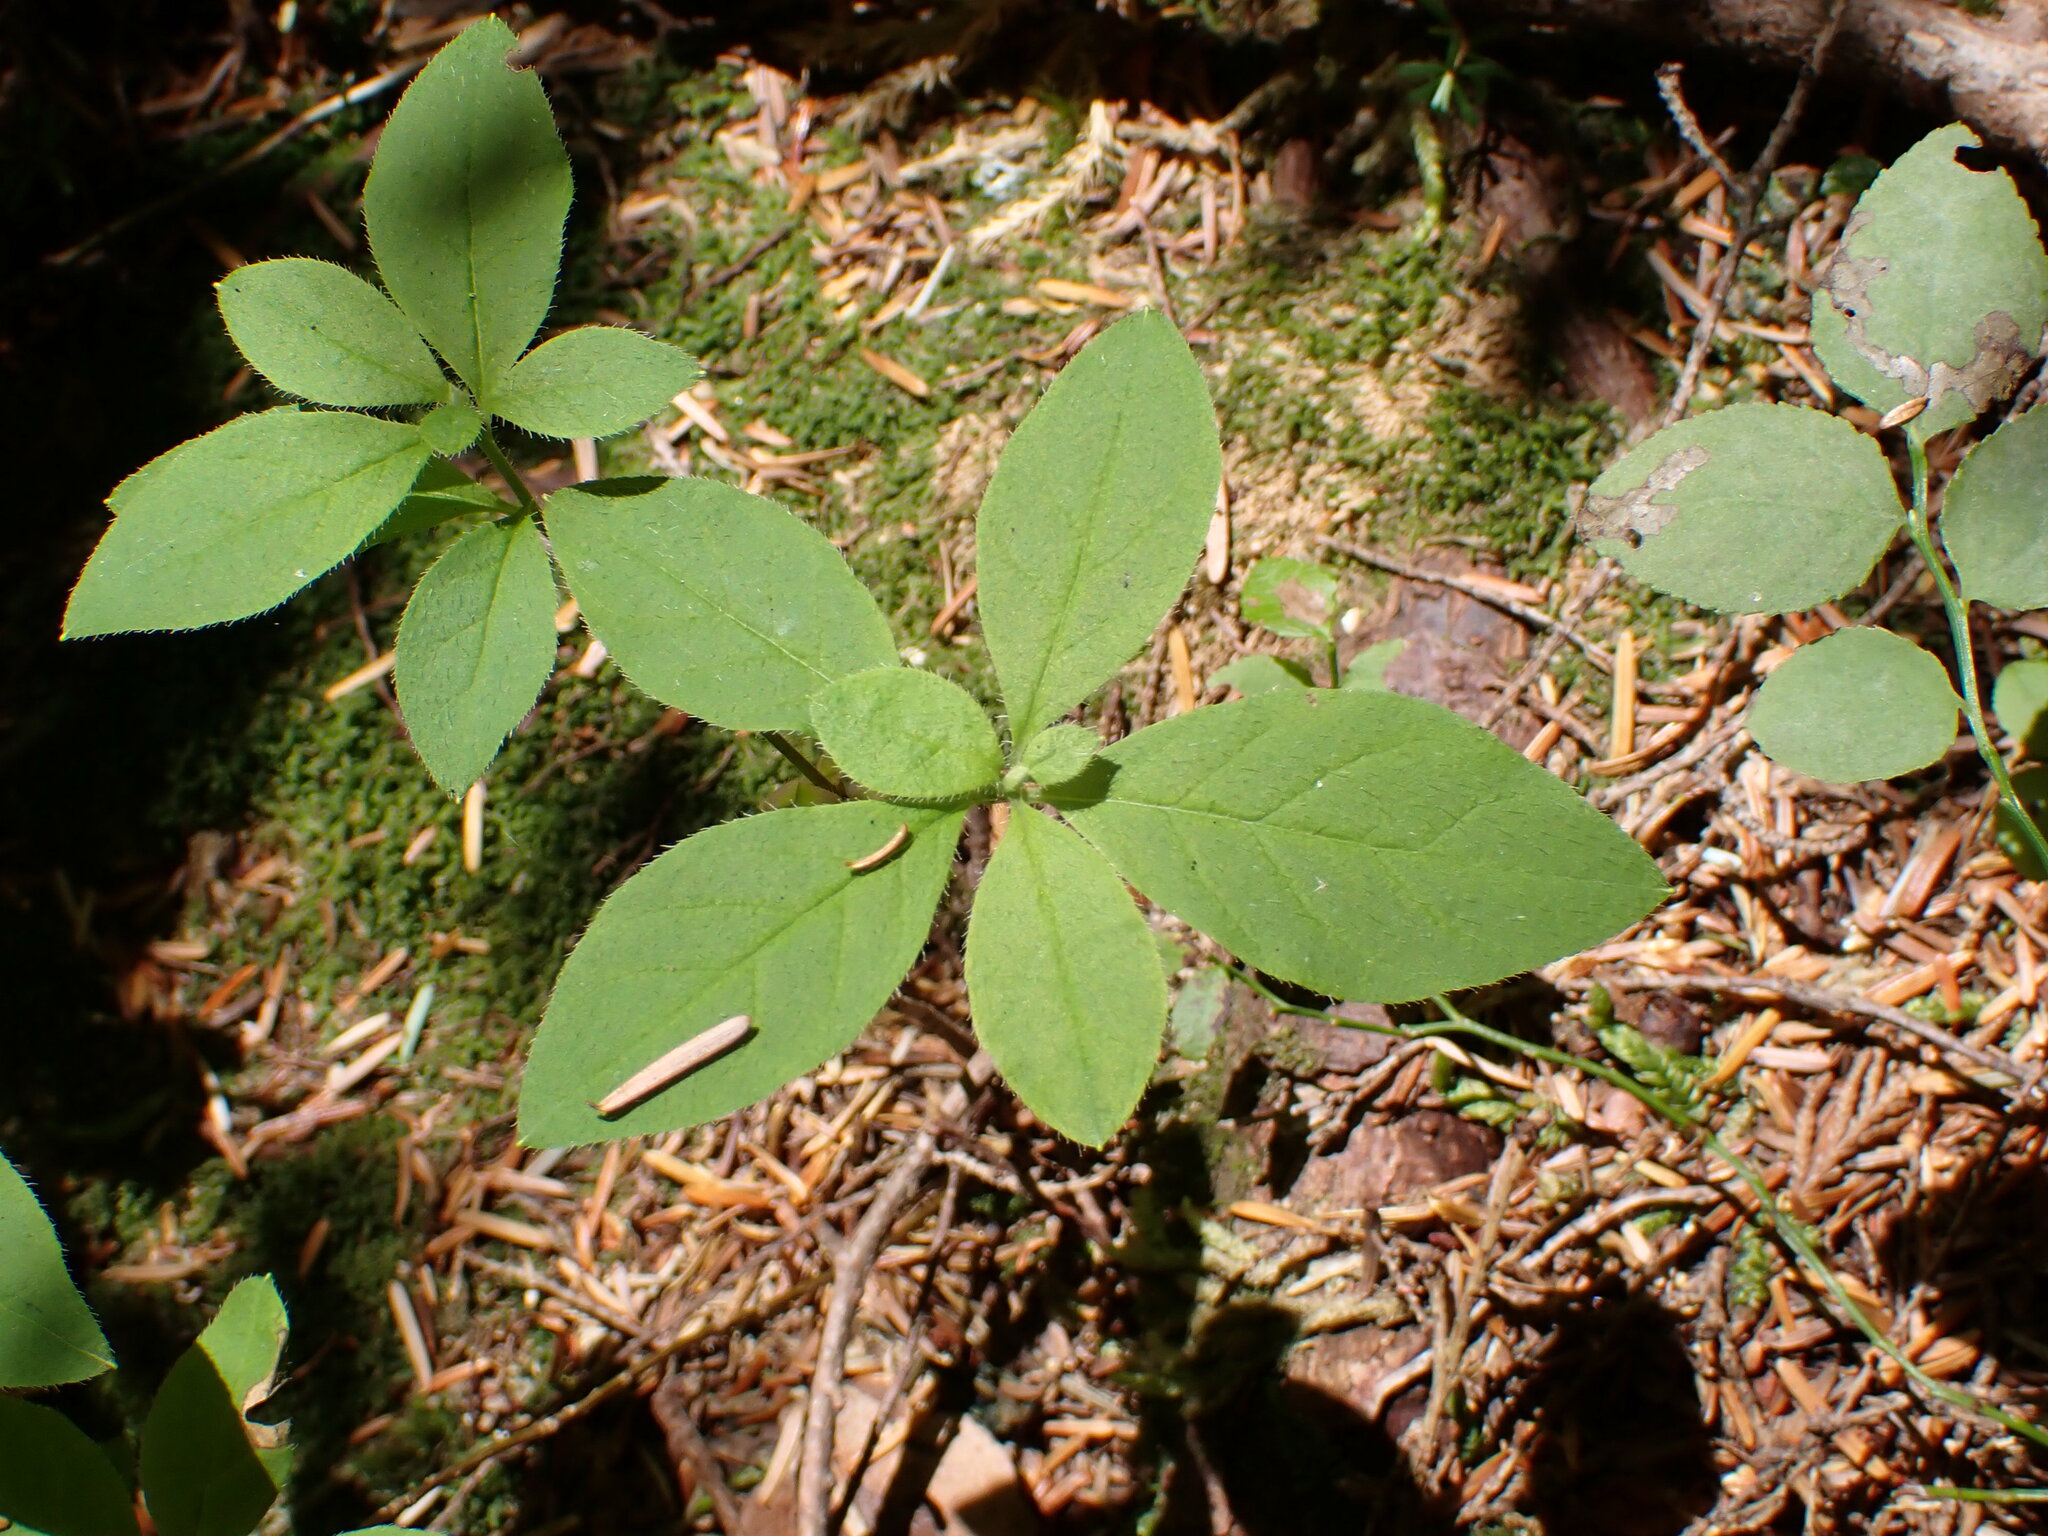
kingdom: Plantae
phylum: Tracheophyta
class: Magnoliopsida
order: Ericales
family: Ericaceae
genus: Rhododendron
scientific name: Rhododendron menziesii
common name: Pacific menziesia
